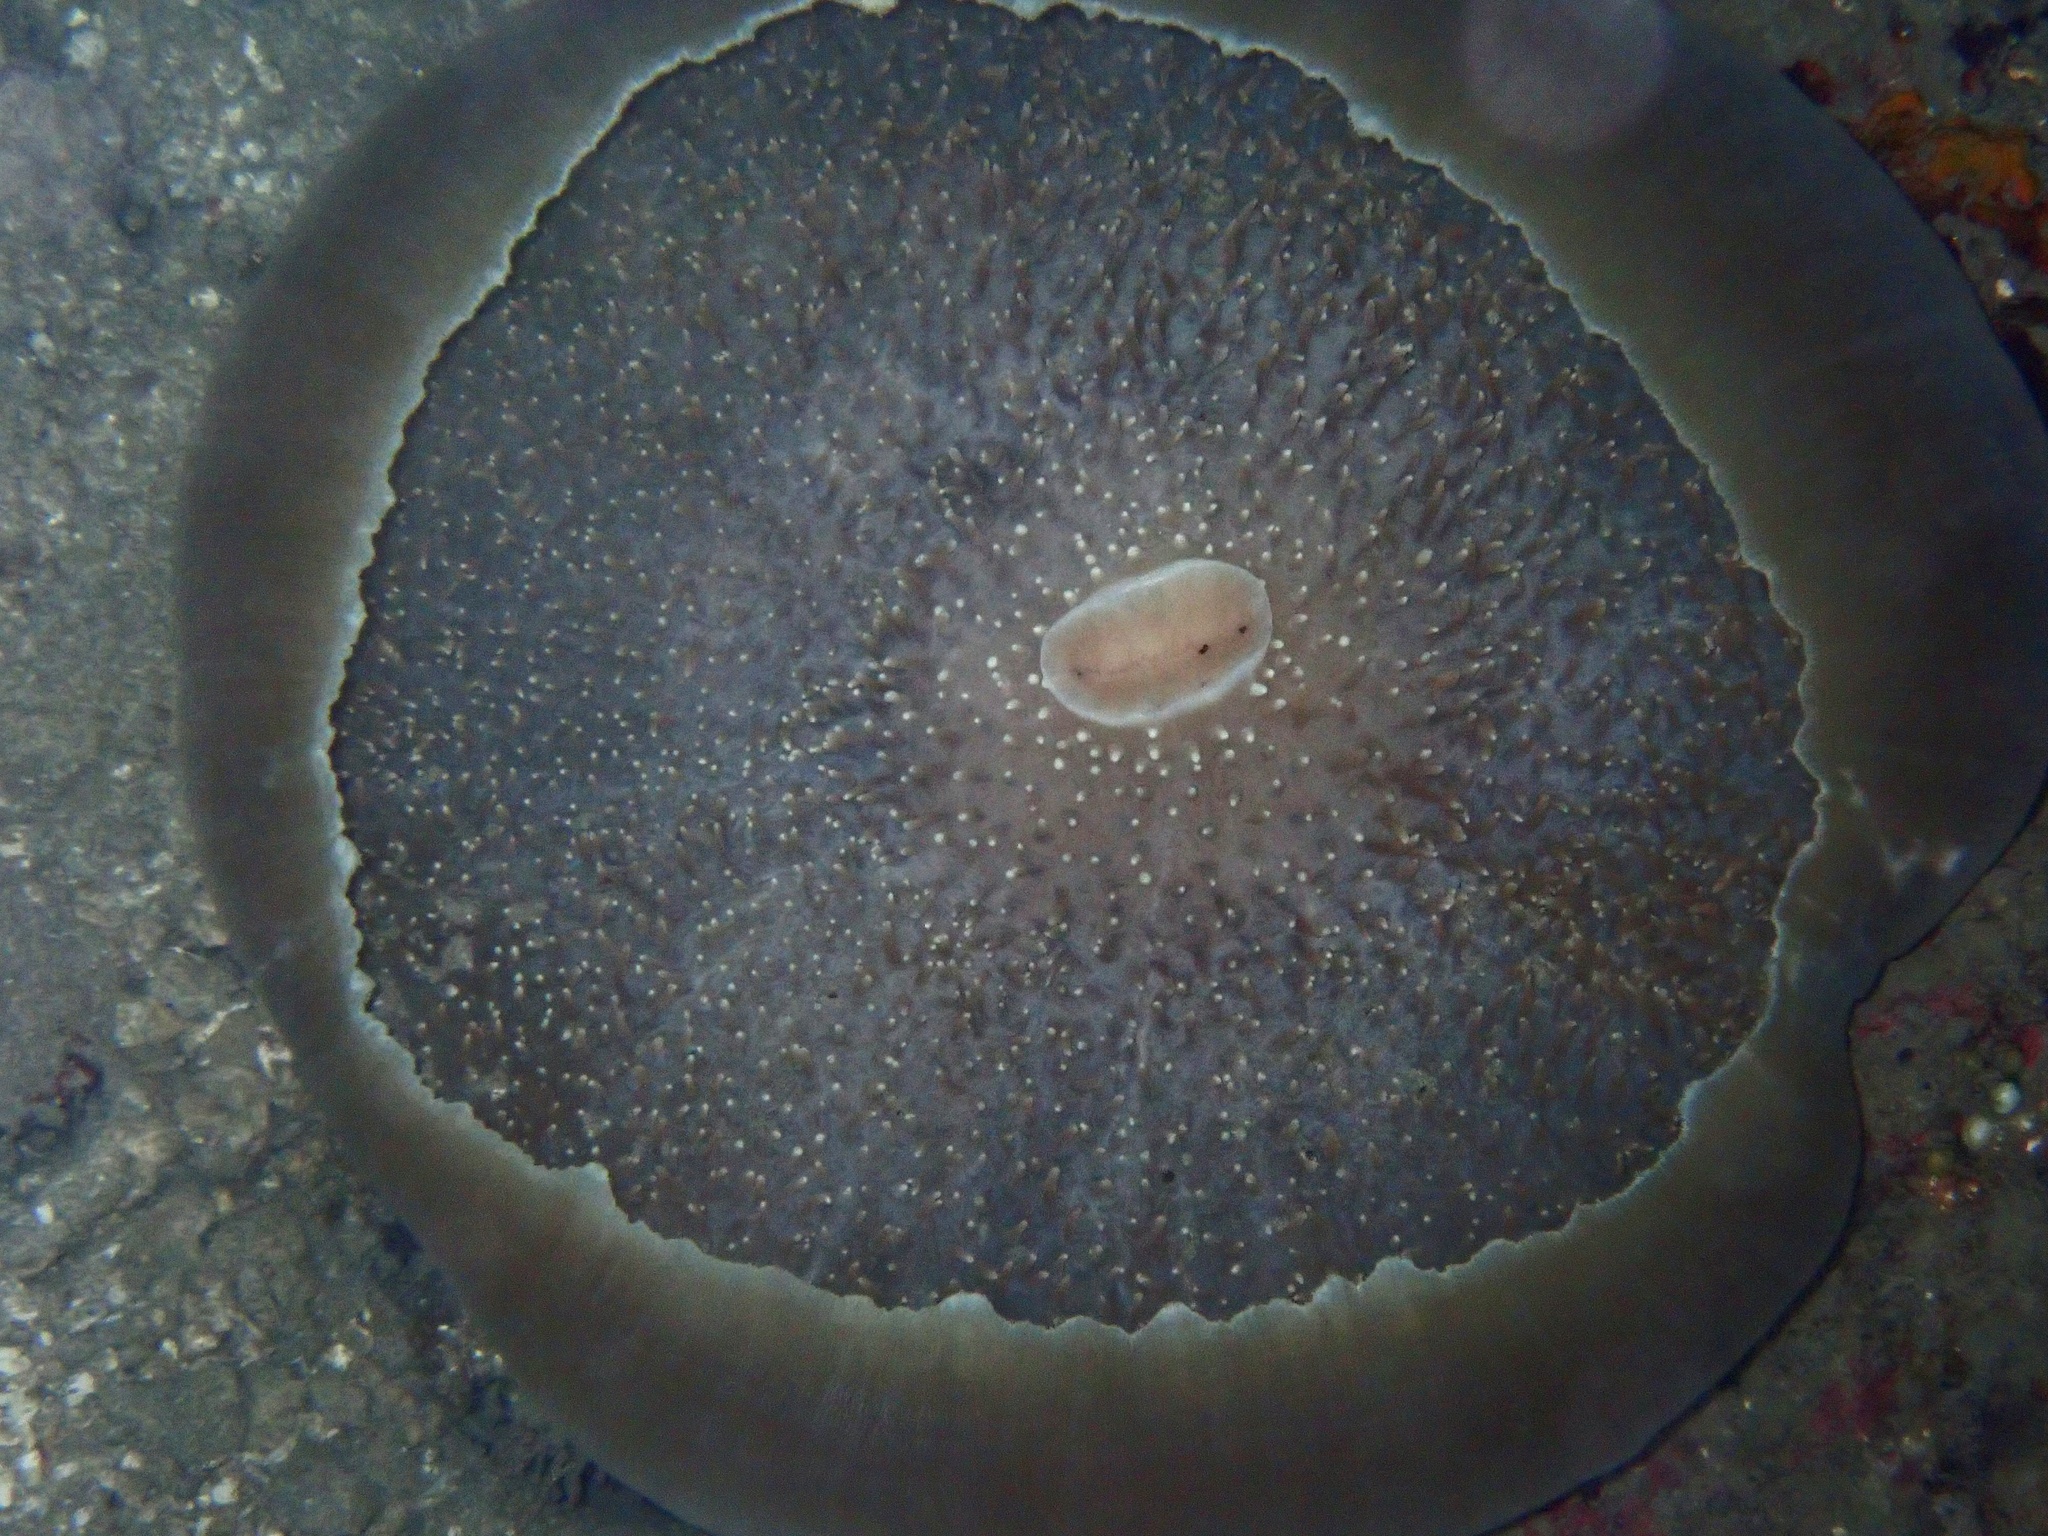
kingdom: Animalia
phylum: Cnidaria
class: Anthozoa
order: Corallimorpharia
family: Discosomidae
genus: Amplexidiscus
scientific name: Amplexidiscus fenestrafer
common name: Elephant ear anemone
